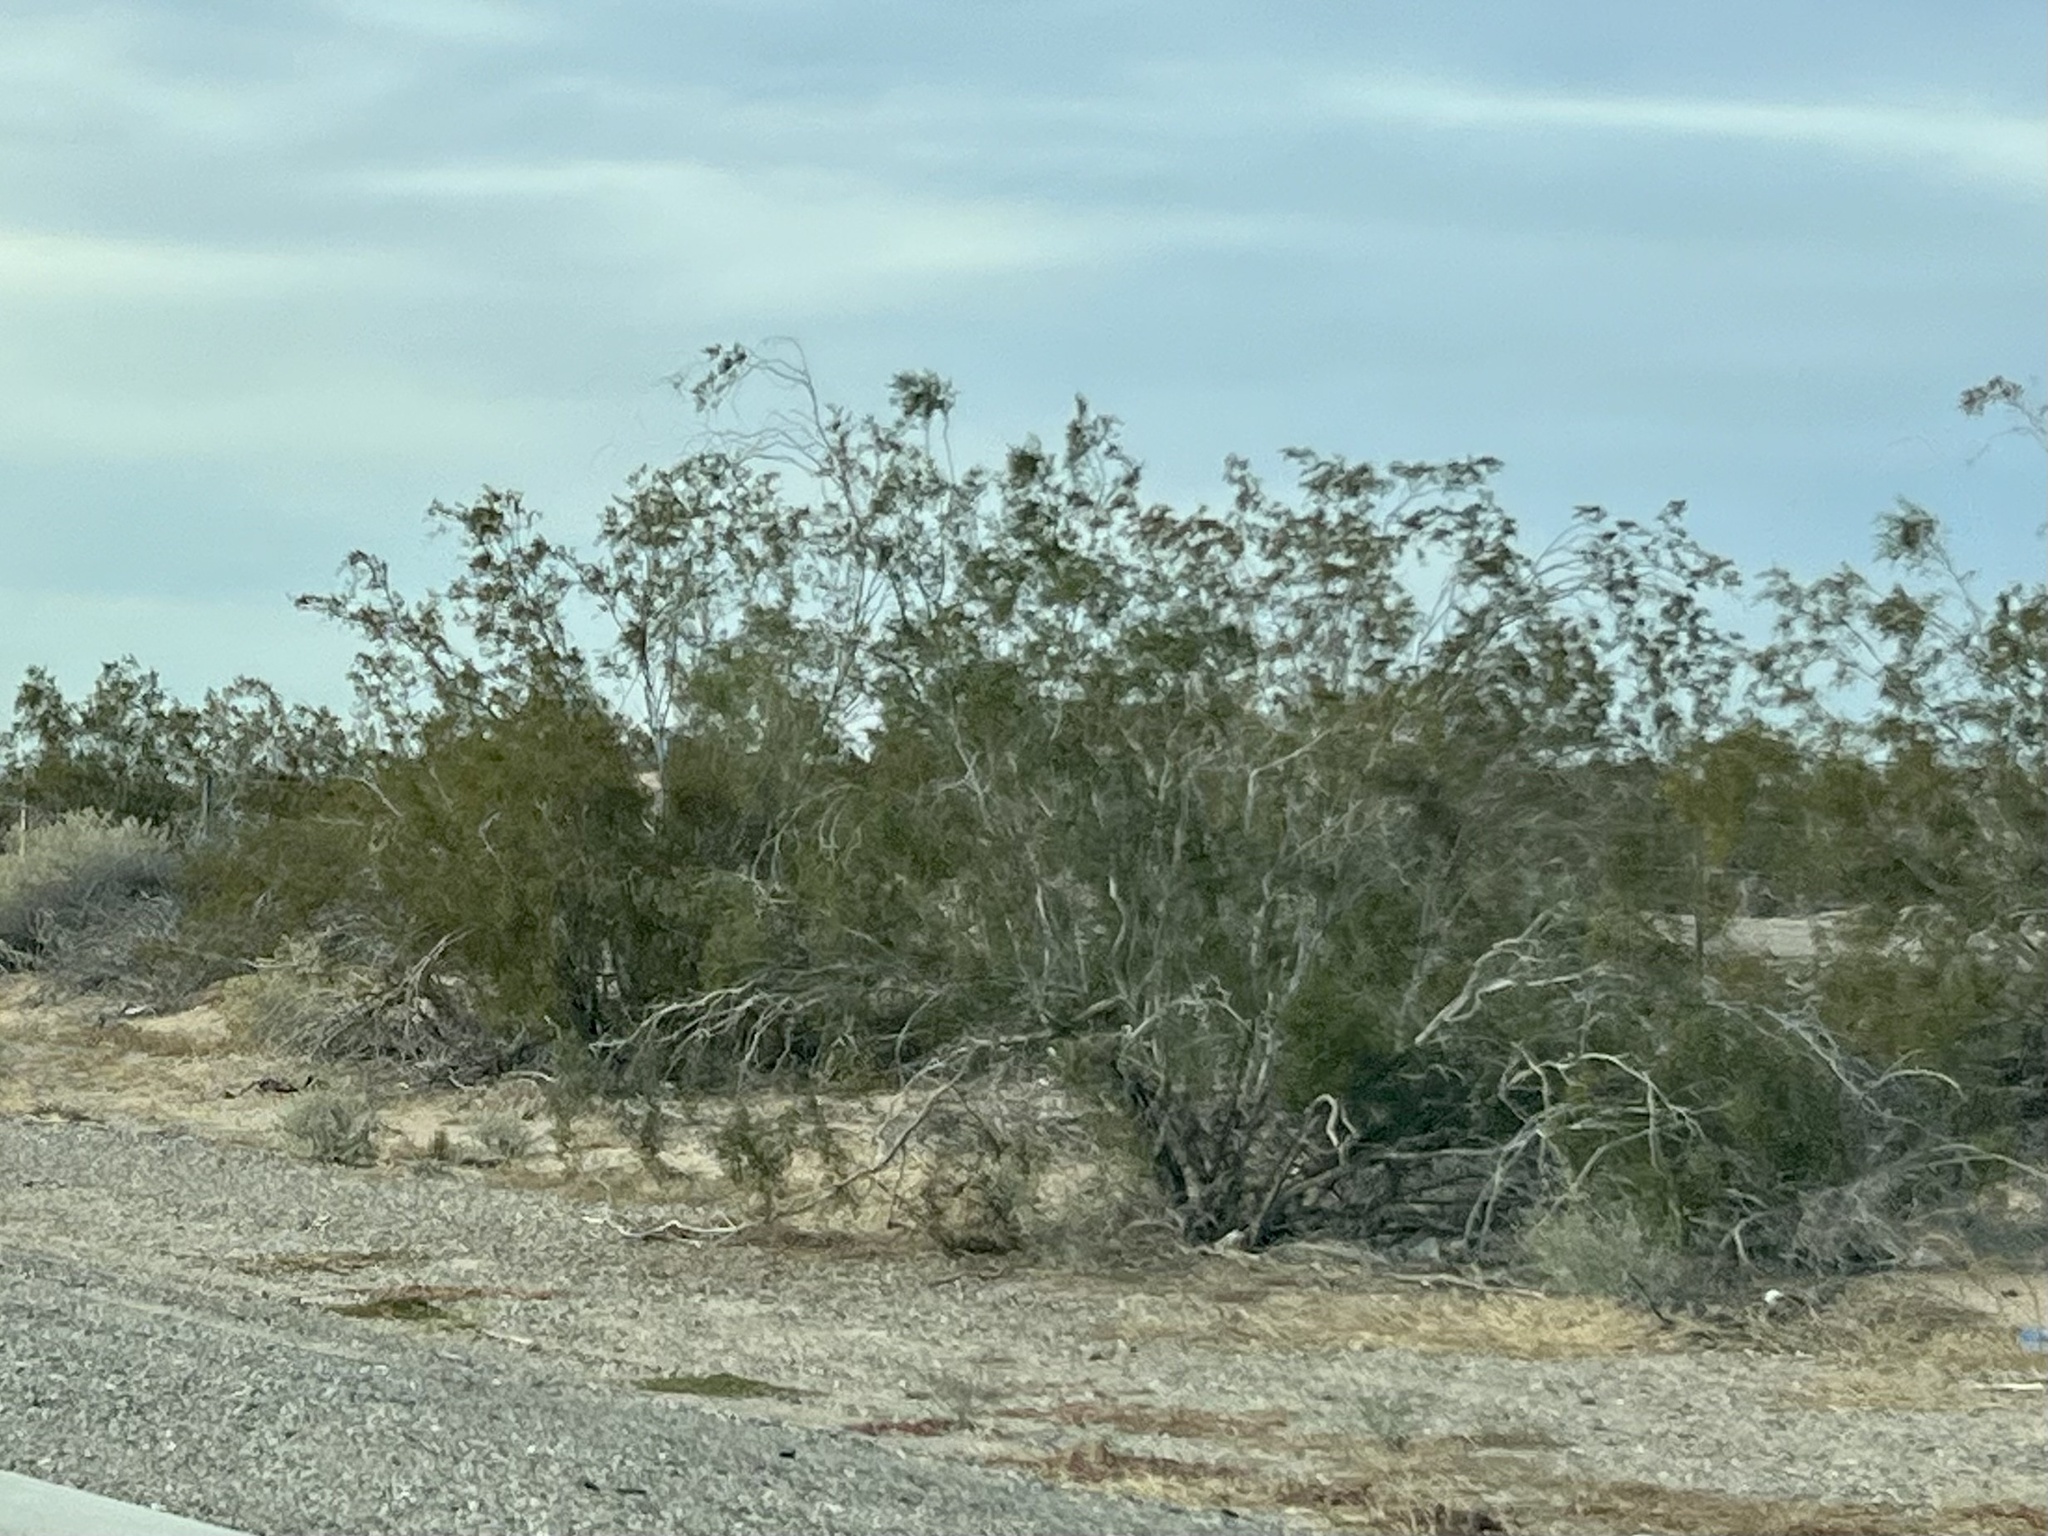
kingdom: Plantae
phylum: Tracheophyta
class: Magnoliopsida
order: Zygophyllales
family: Zygophyllaceae
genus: Larrea
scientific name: Larrea tridentata
